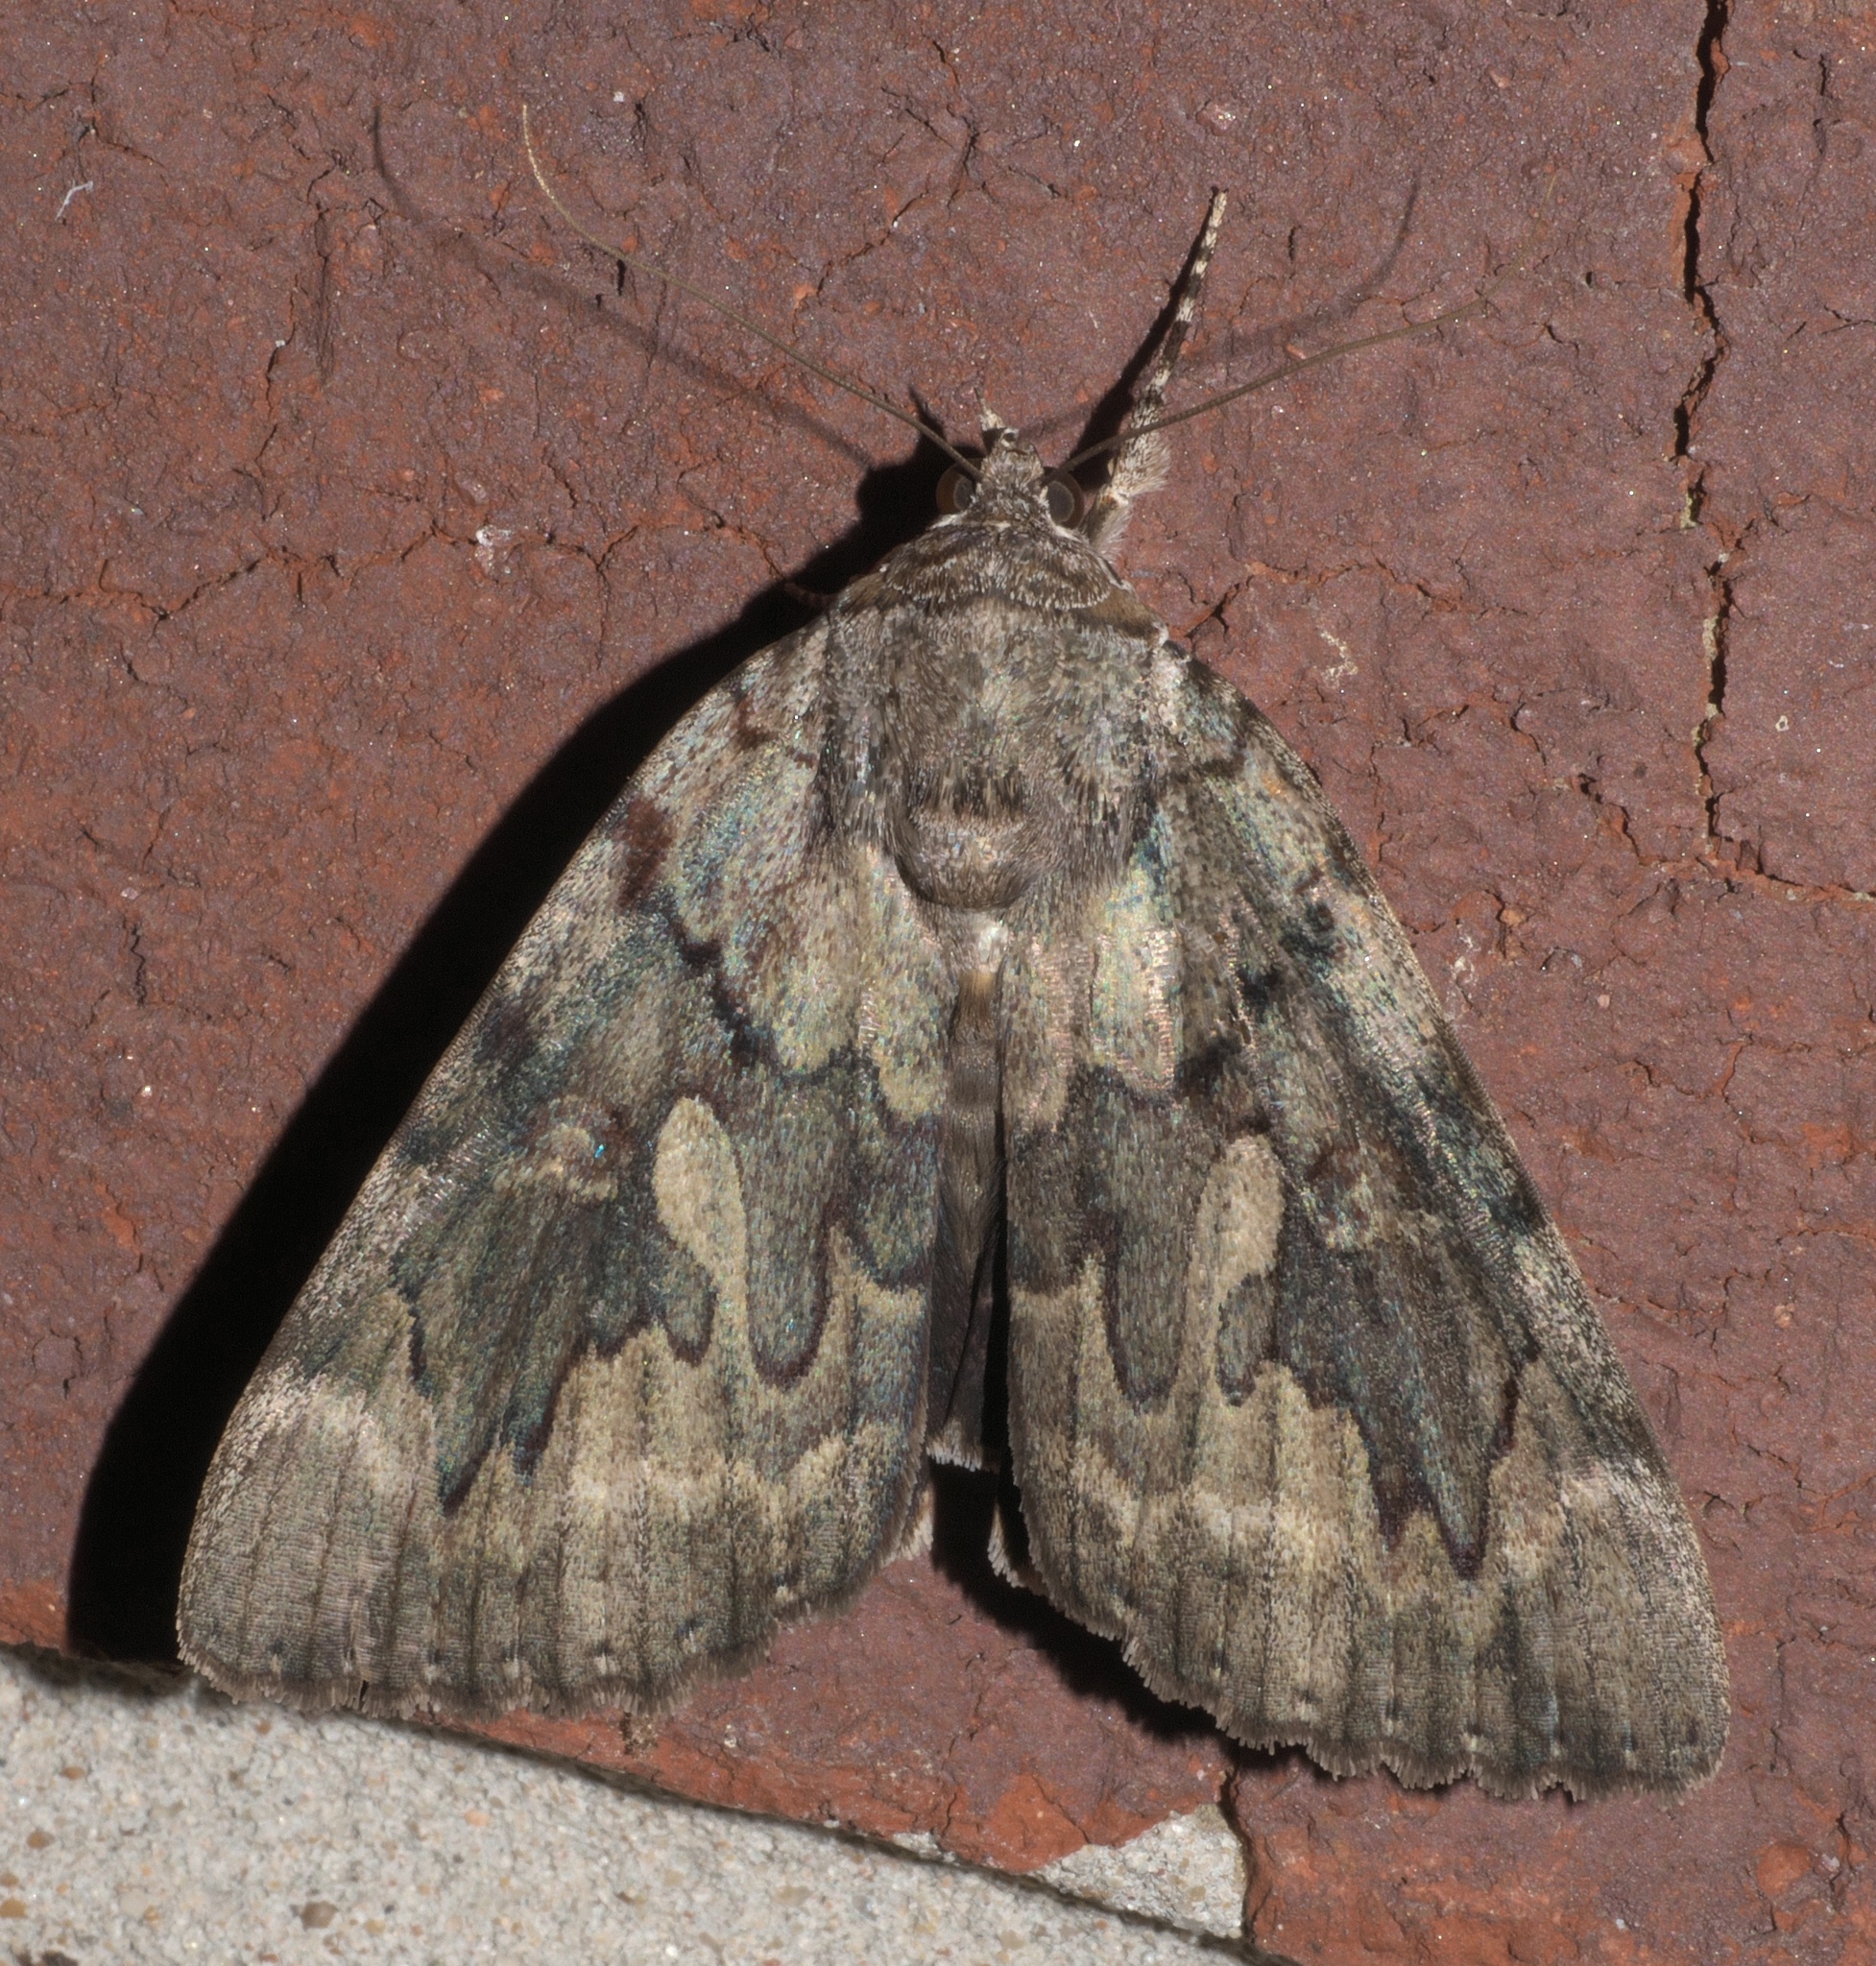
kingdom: Animalia
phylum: Arthropoda
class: Insecta
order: Lepidoptera
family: Erebidae
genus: Catocala
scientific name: Catocala agrippina
